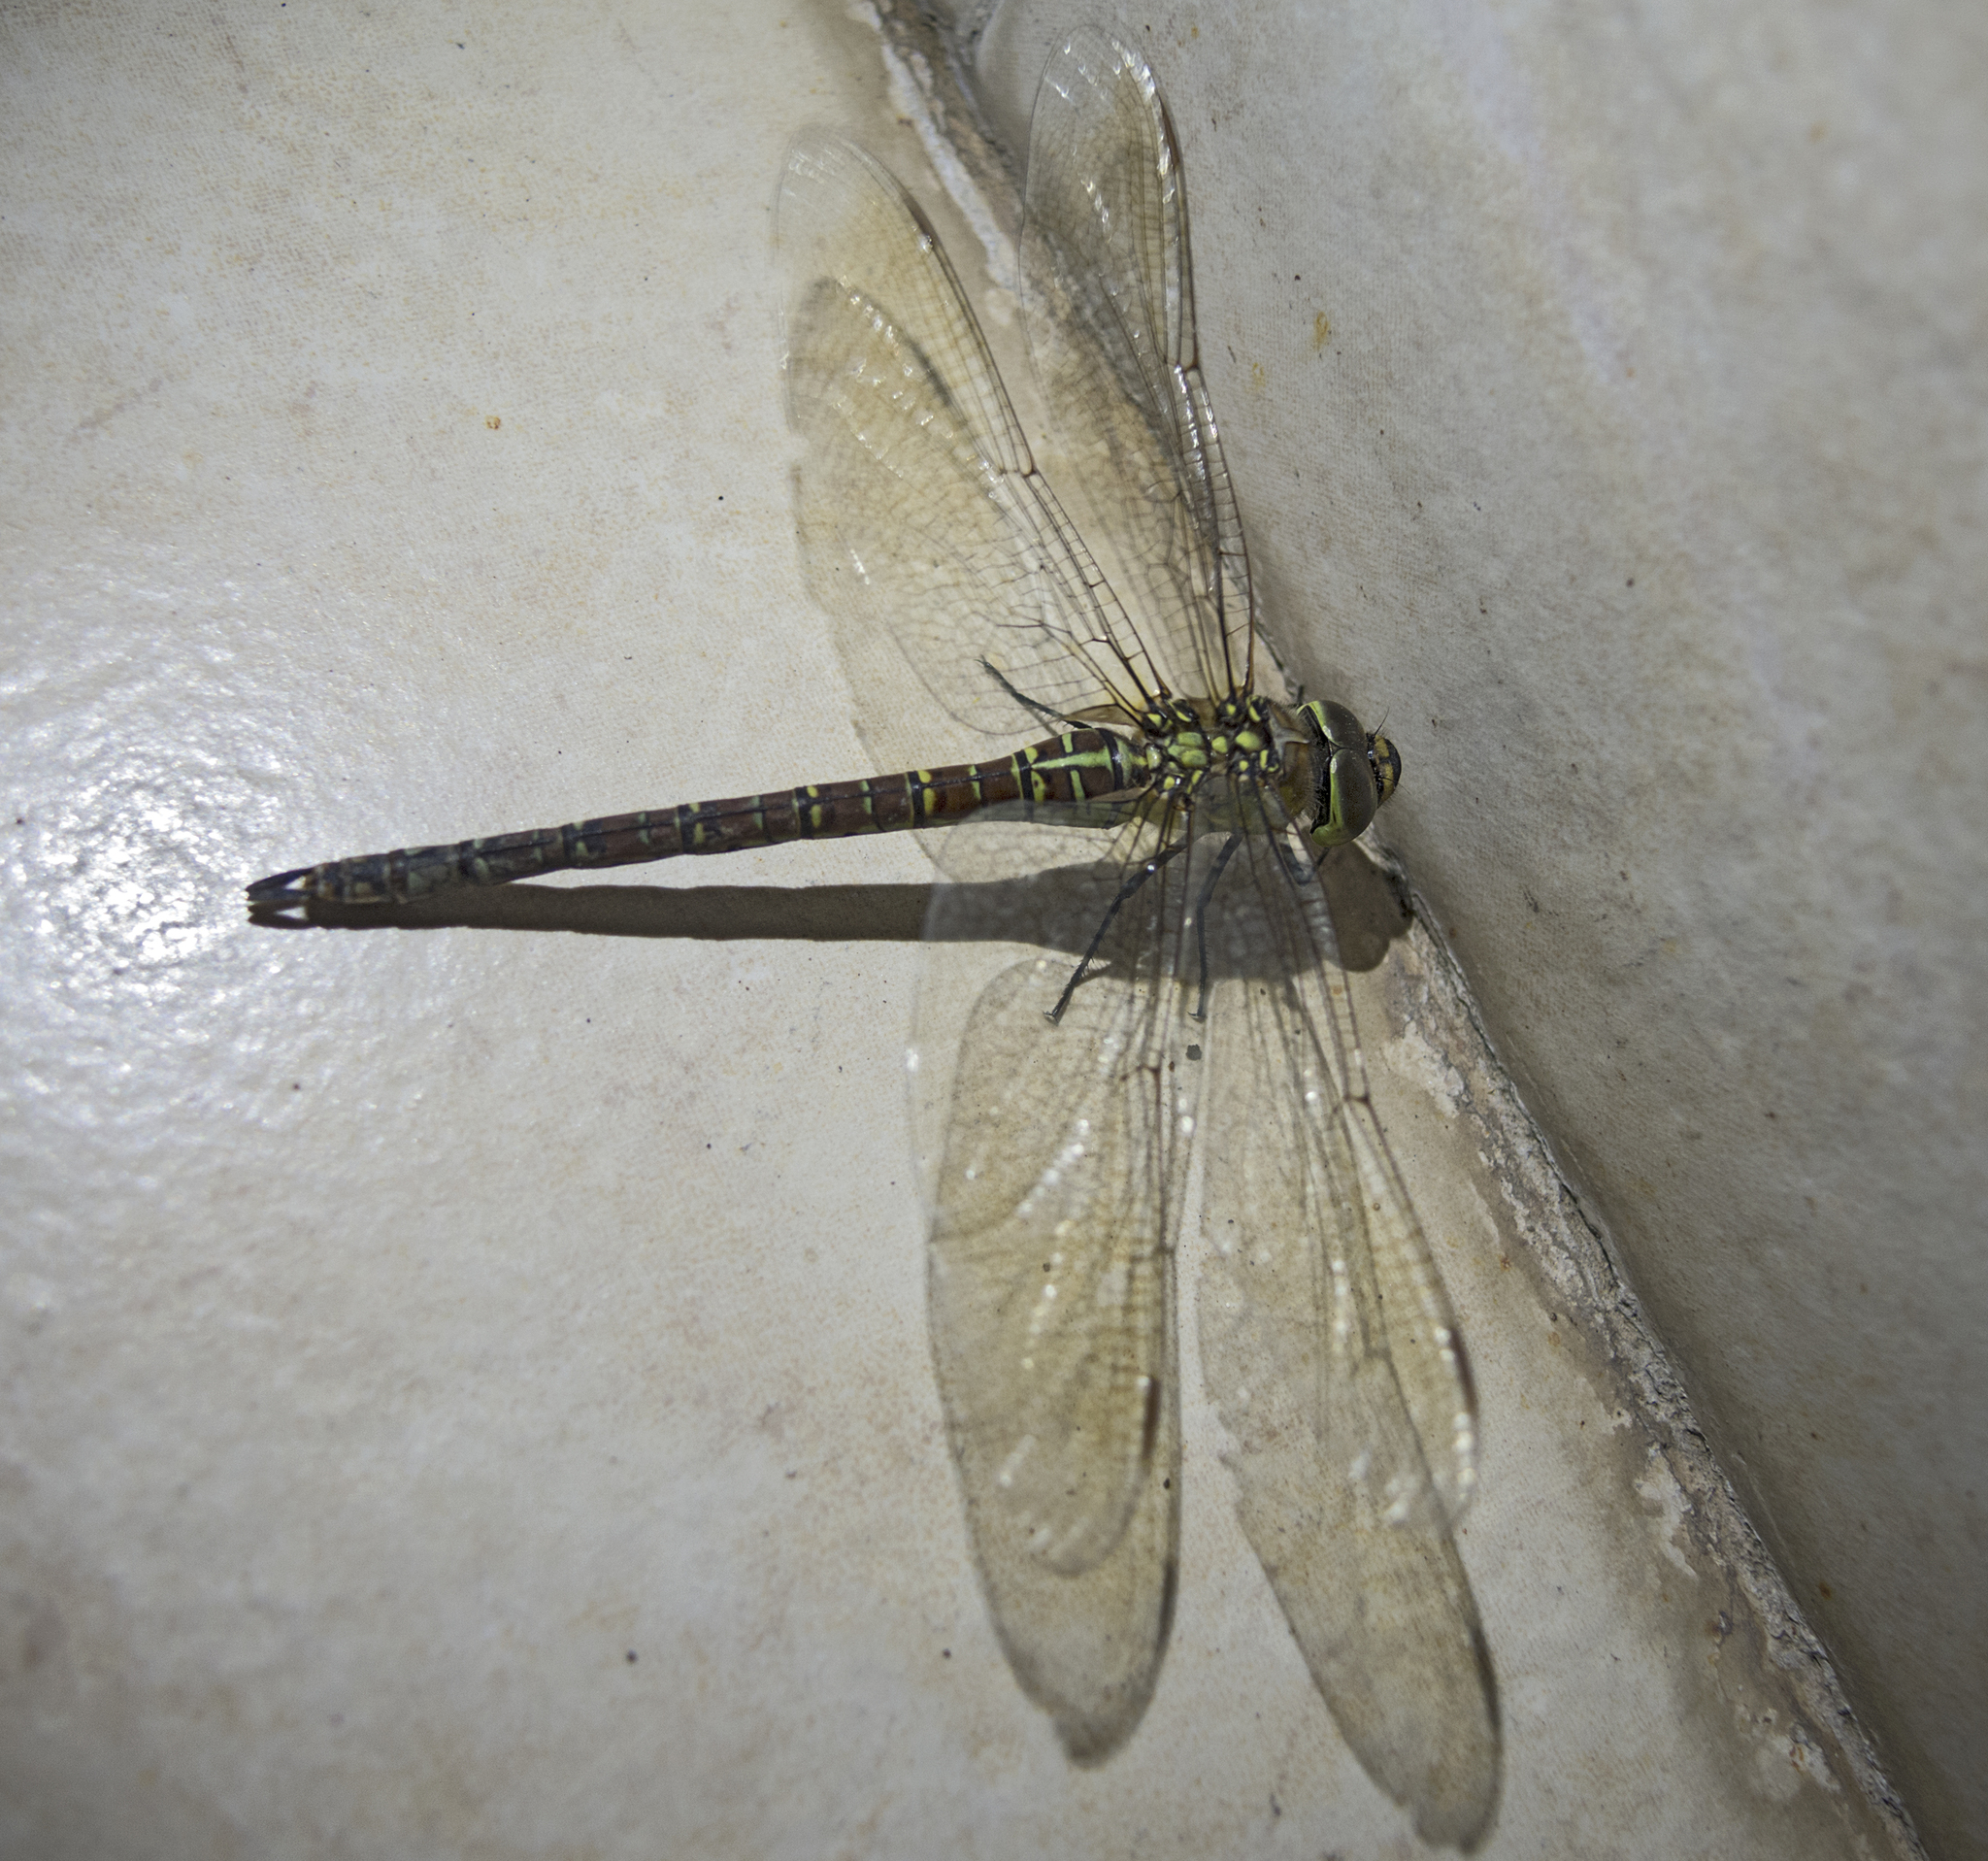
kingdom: Animalia
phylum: Arthropoda
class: Insecta
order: Odonata
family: Aeshnidae
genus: Aeshna
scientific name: Aeshna affinis
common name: Southern migrant hawker
